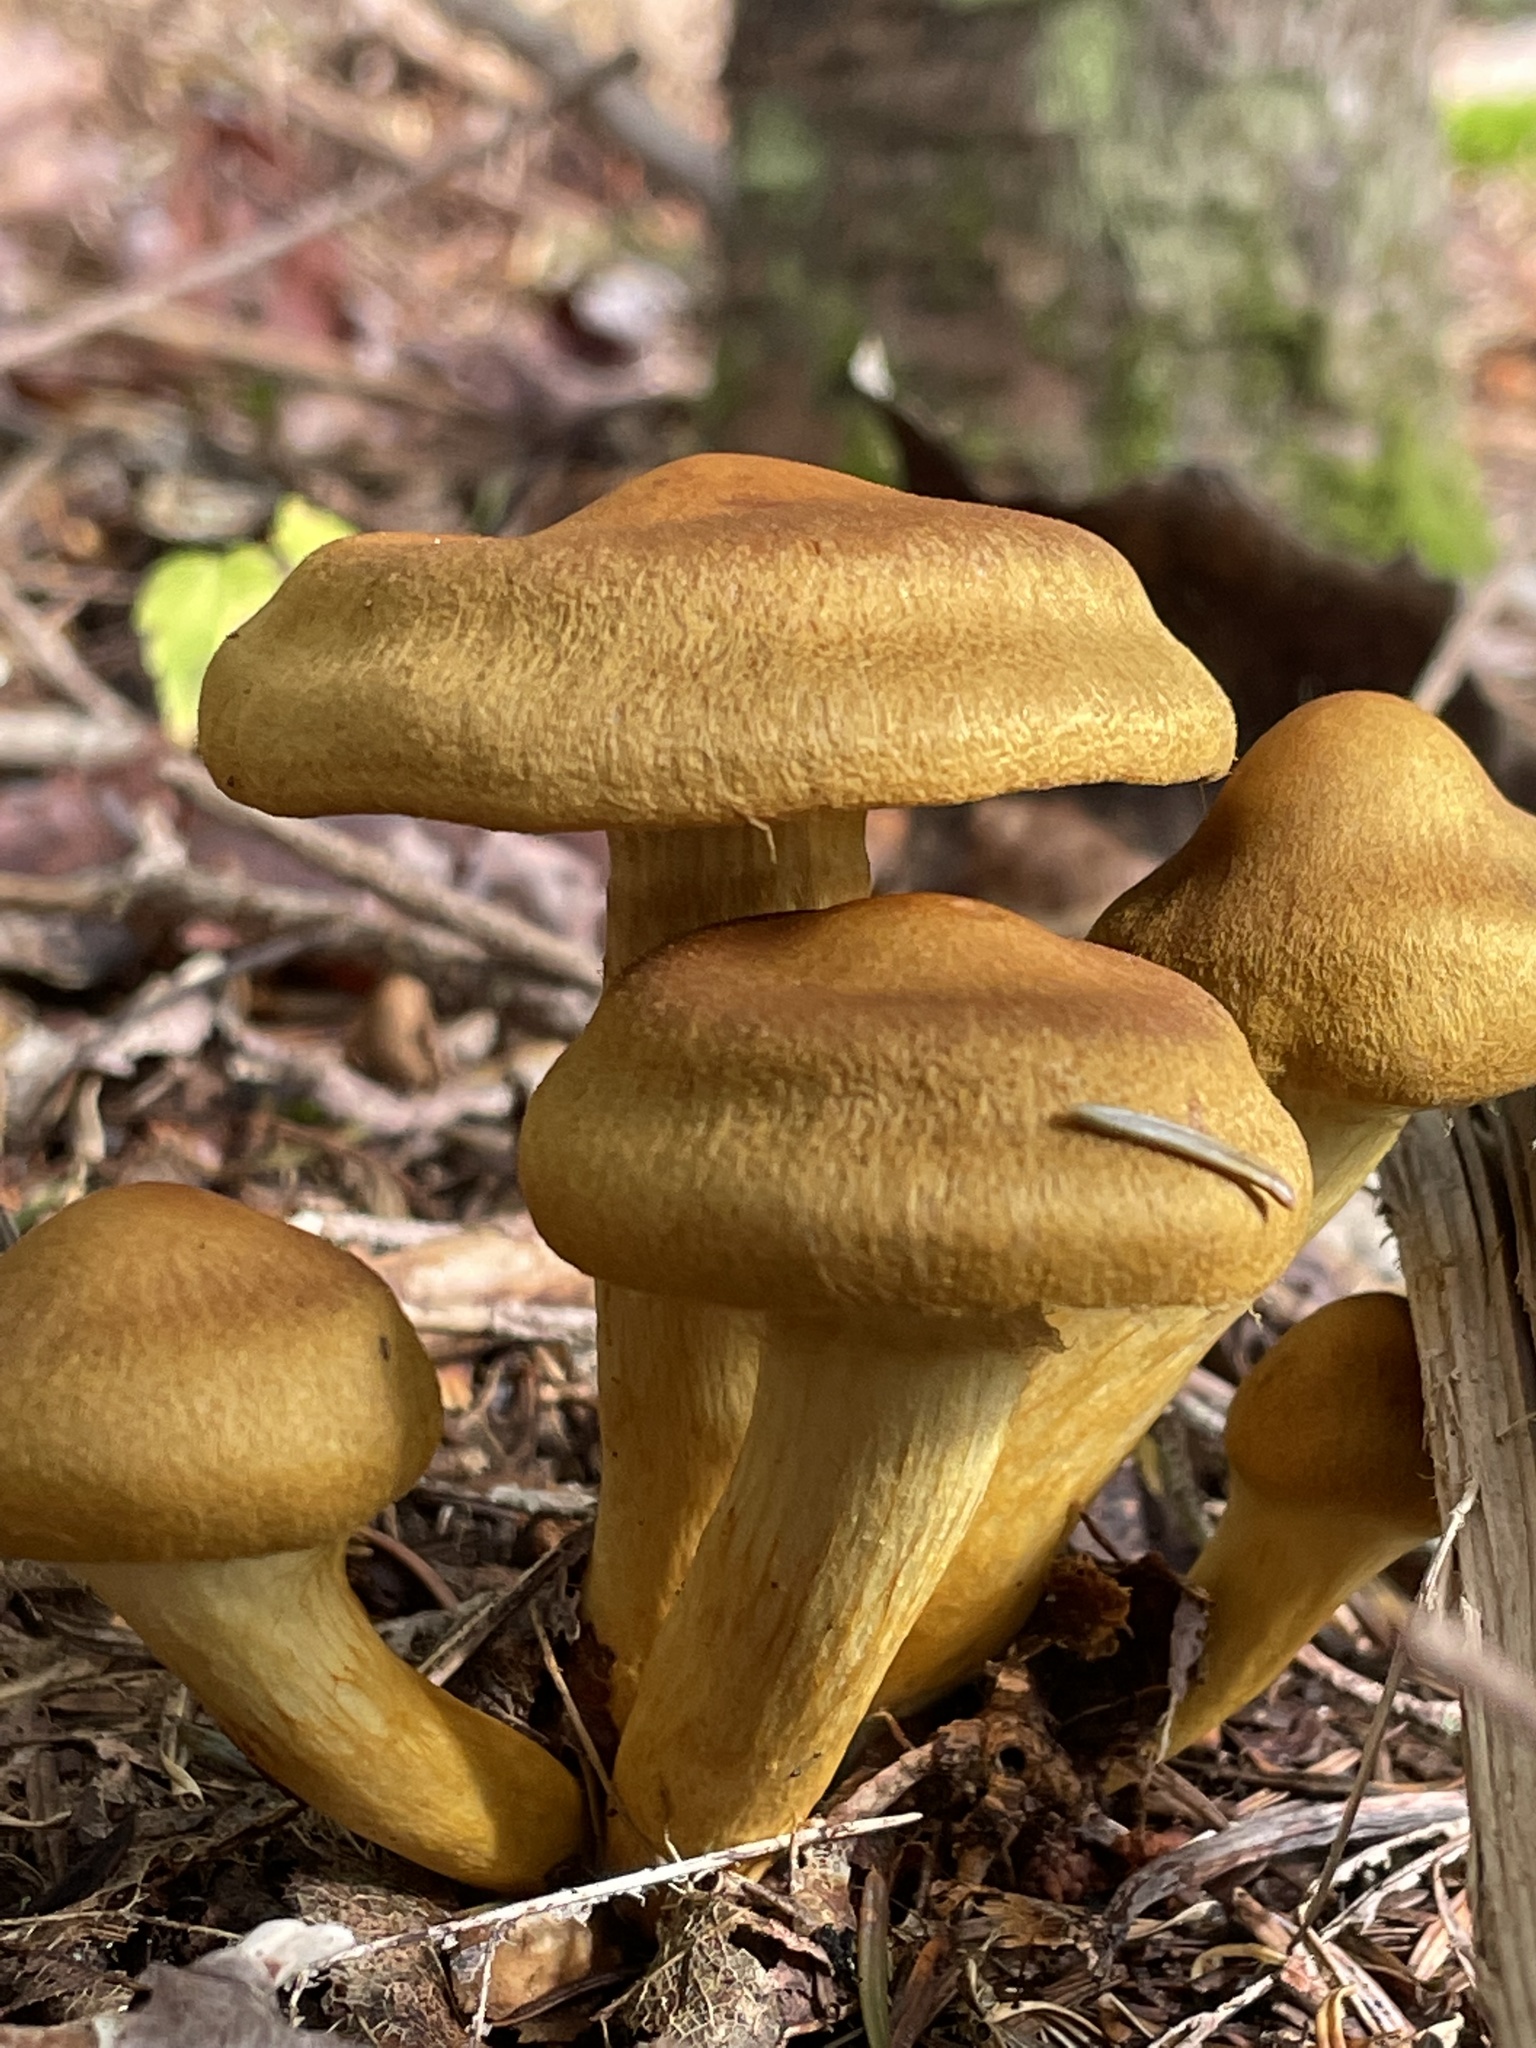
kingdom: Fungi
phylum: Basidiomycota
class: Agaricomycetes
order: Agaricales
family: Cortinariaceae
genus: Cortinarius
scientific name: Cortinarius semisanguineus
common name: Surprise webcap
